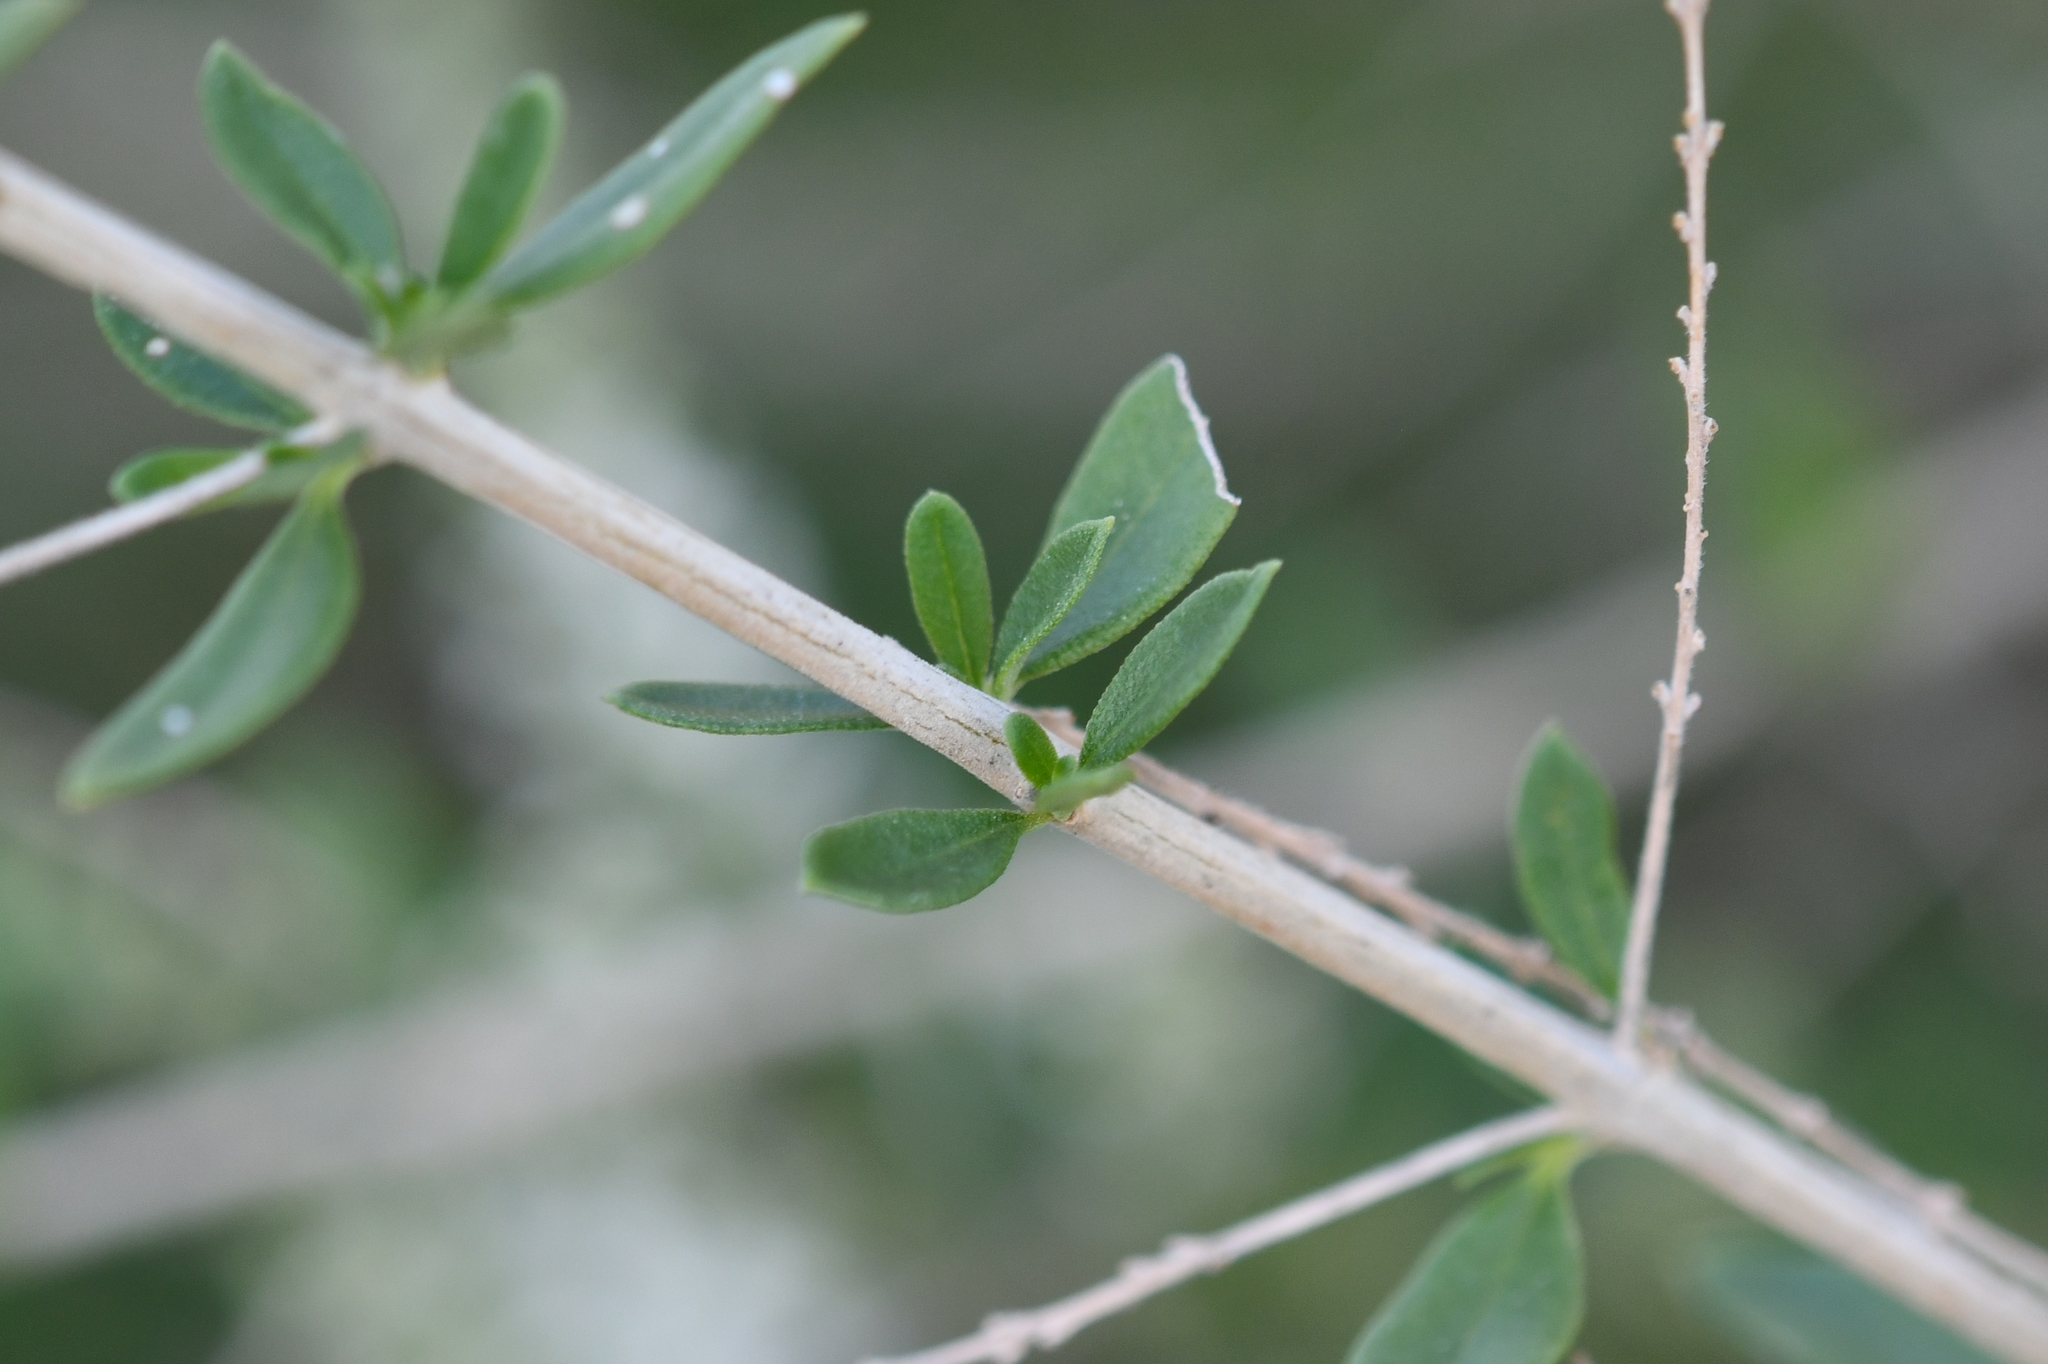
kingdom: Plantae
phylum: Tracheophyta
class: Magnoliopsida
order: Lamiales
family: Verbenaceae
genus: Aloysia
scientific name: Aloysia gratissima
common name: Common bee-brush
